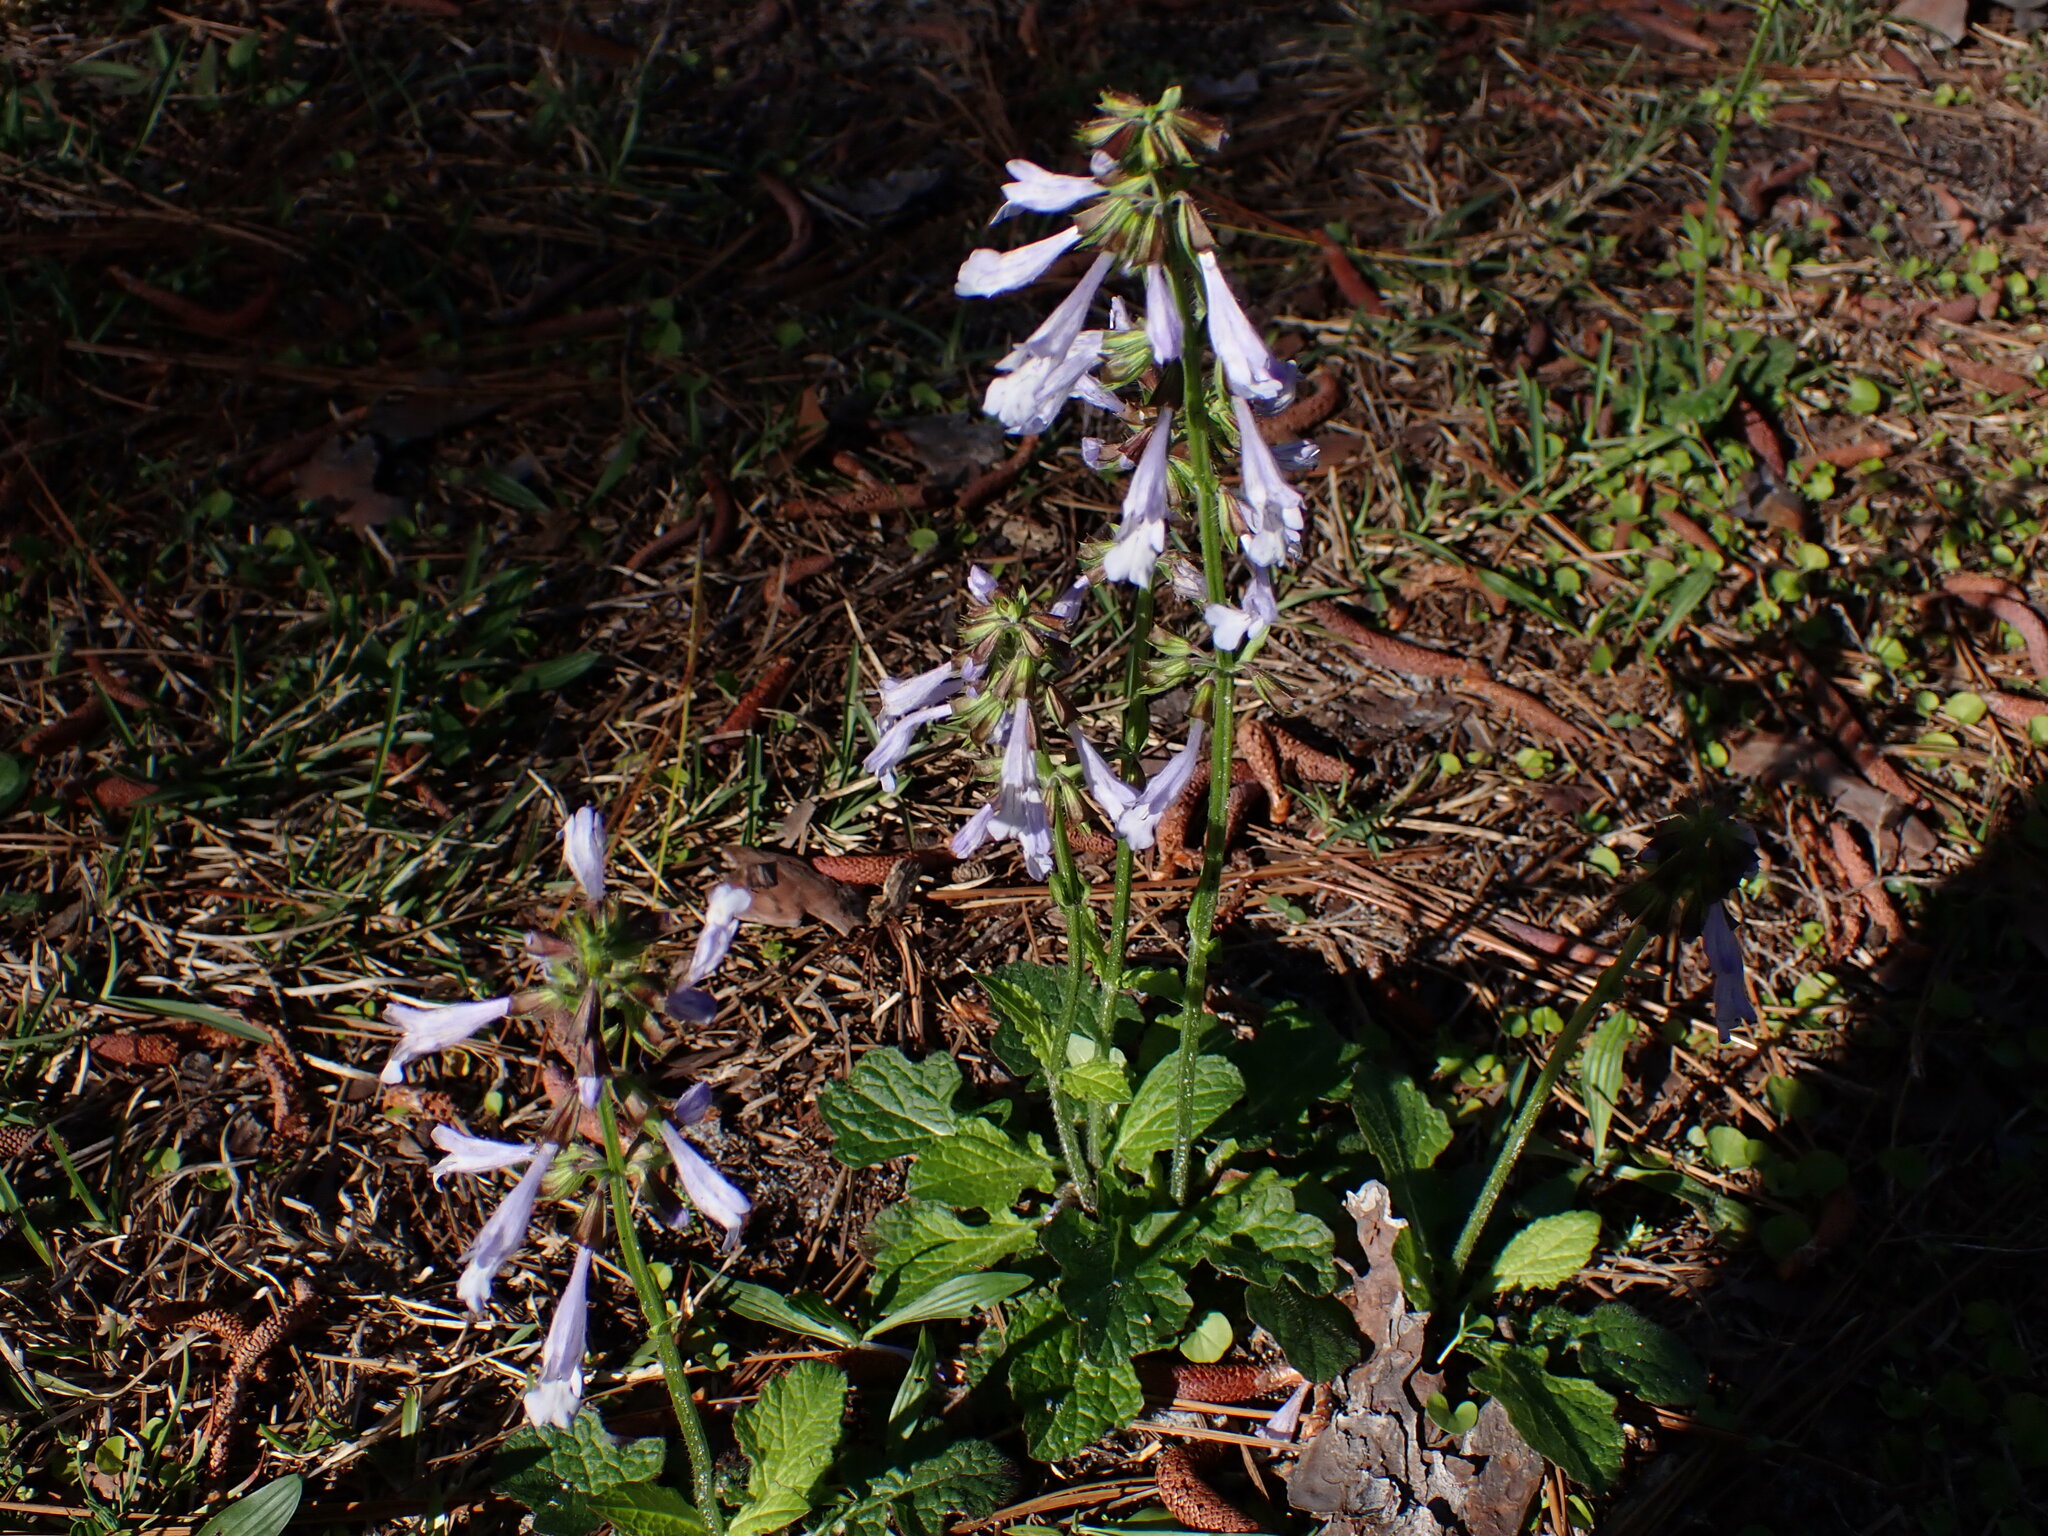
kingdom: Plantae
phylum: Tracheophyta
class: Magnoliopsida
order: Lamiales
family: Lamiaceae
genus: Salvia
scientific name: Salvia lyrata
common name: Cancerweed
